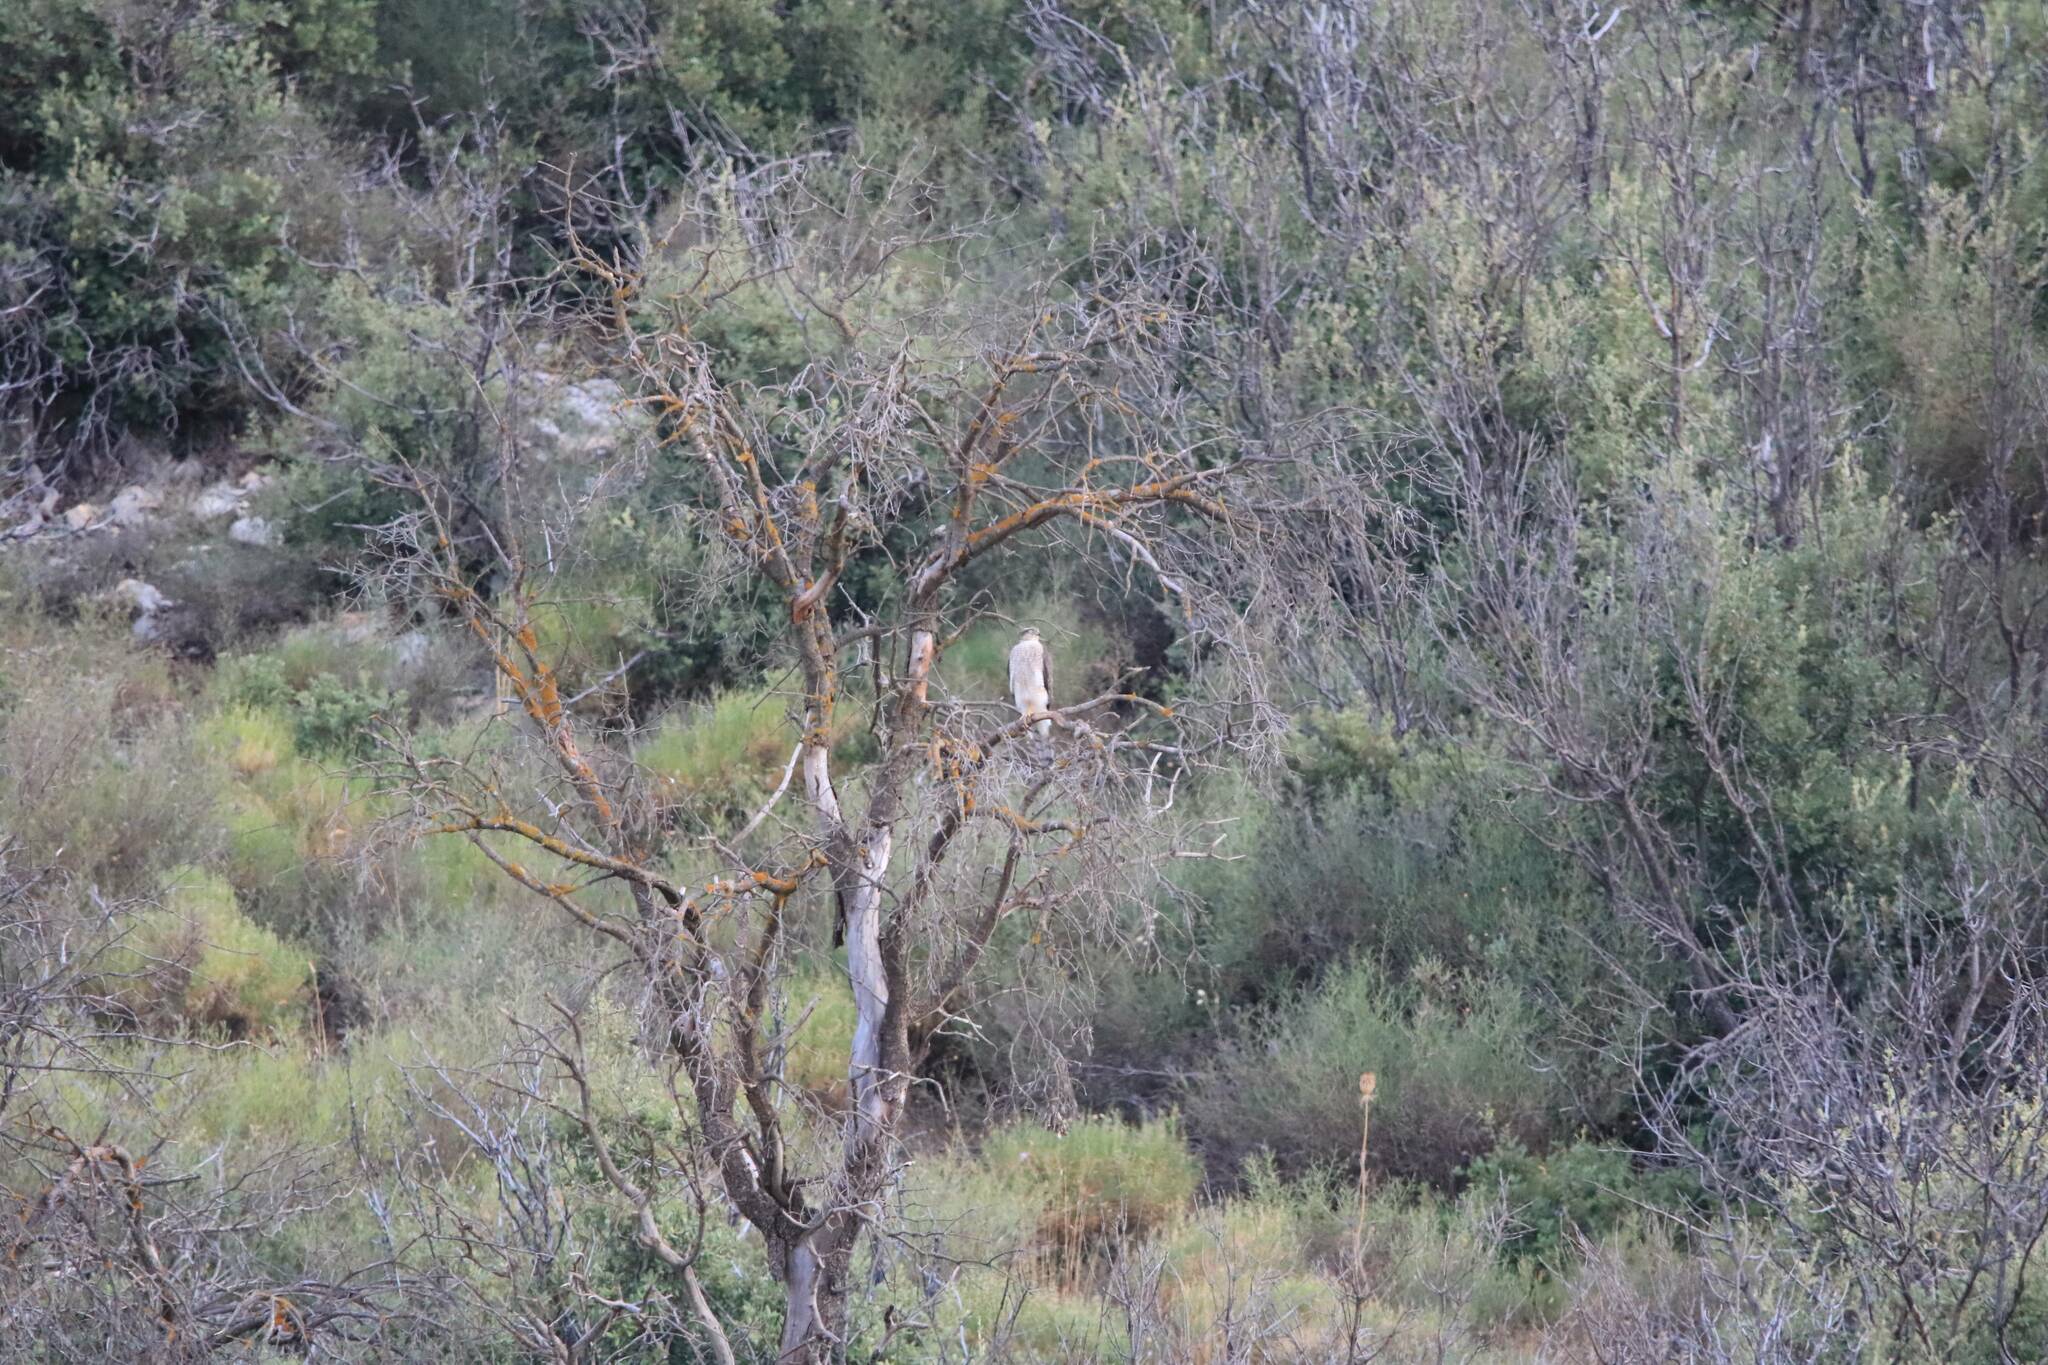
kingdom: Animalia
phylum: Chordata
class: Aves
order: Accipitriformes
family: Accipitridae
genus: Accipiter
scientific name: Accipiter nisus
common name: Eurasian sparrowhawk
